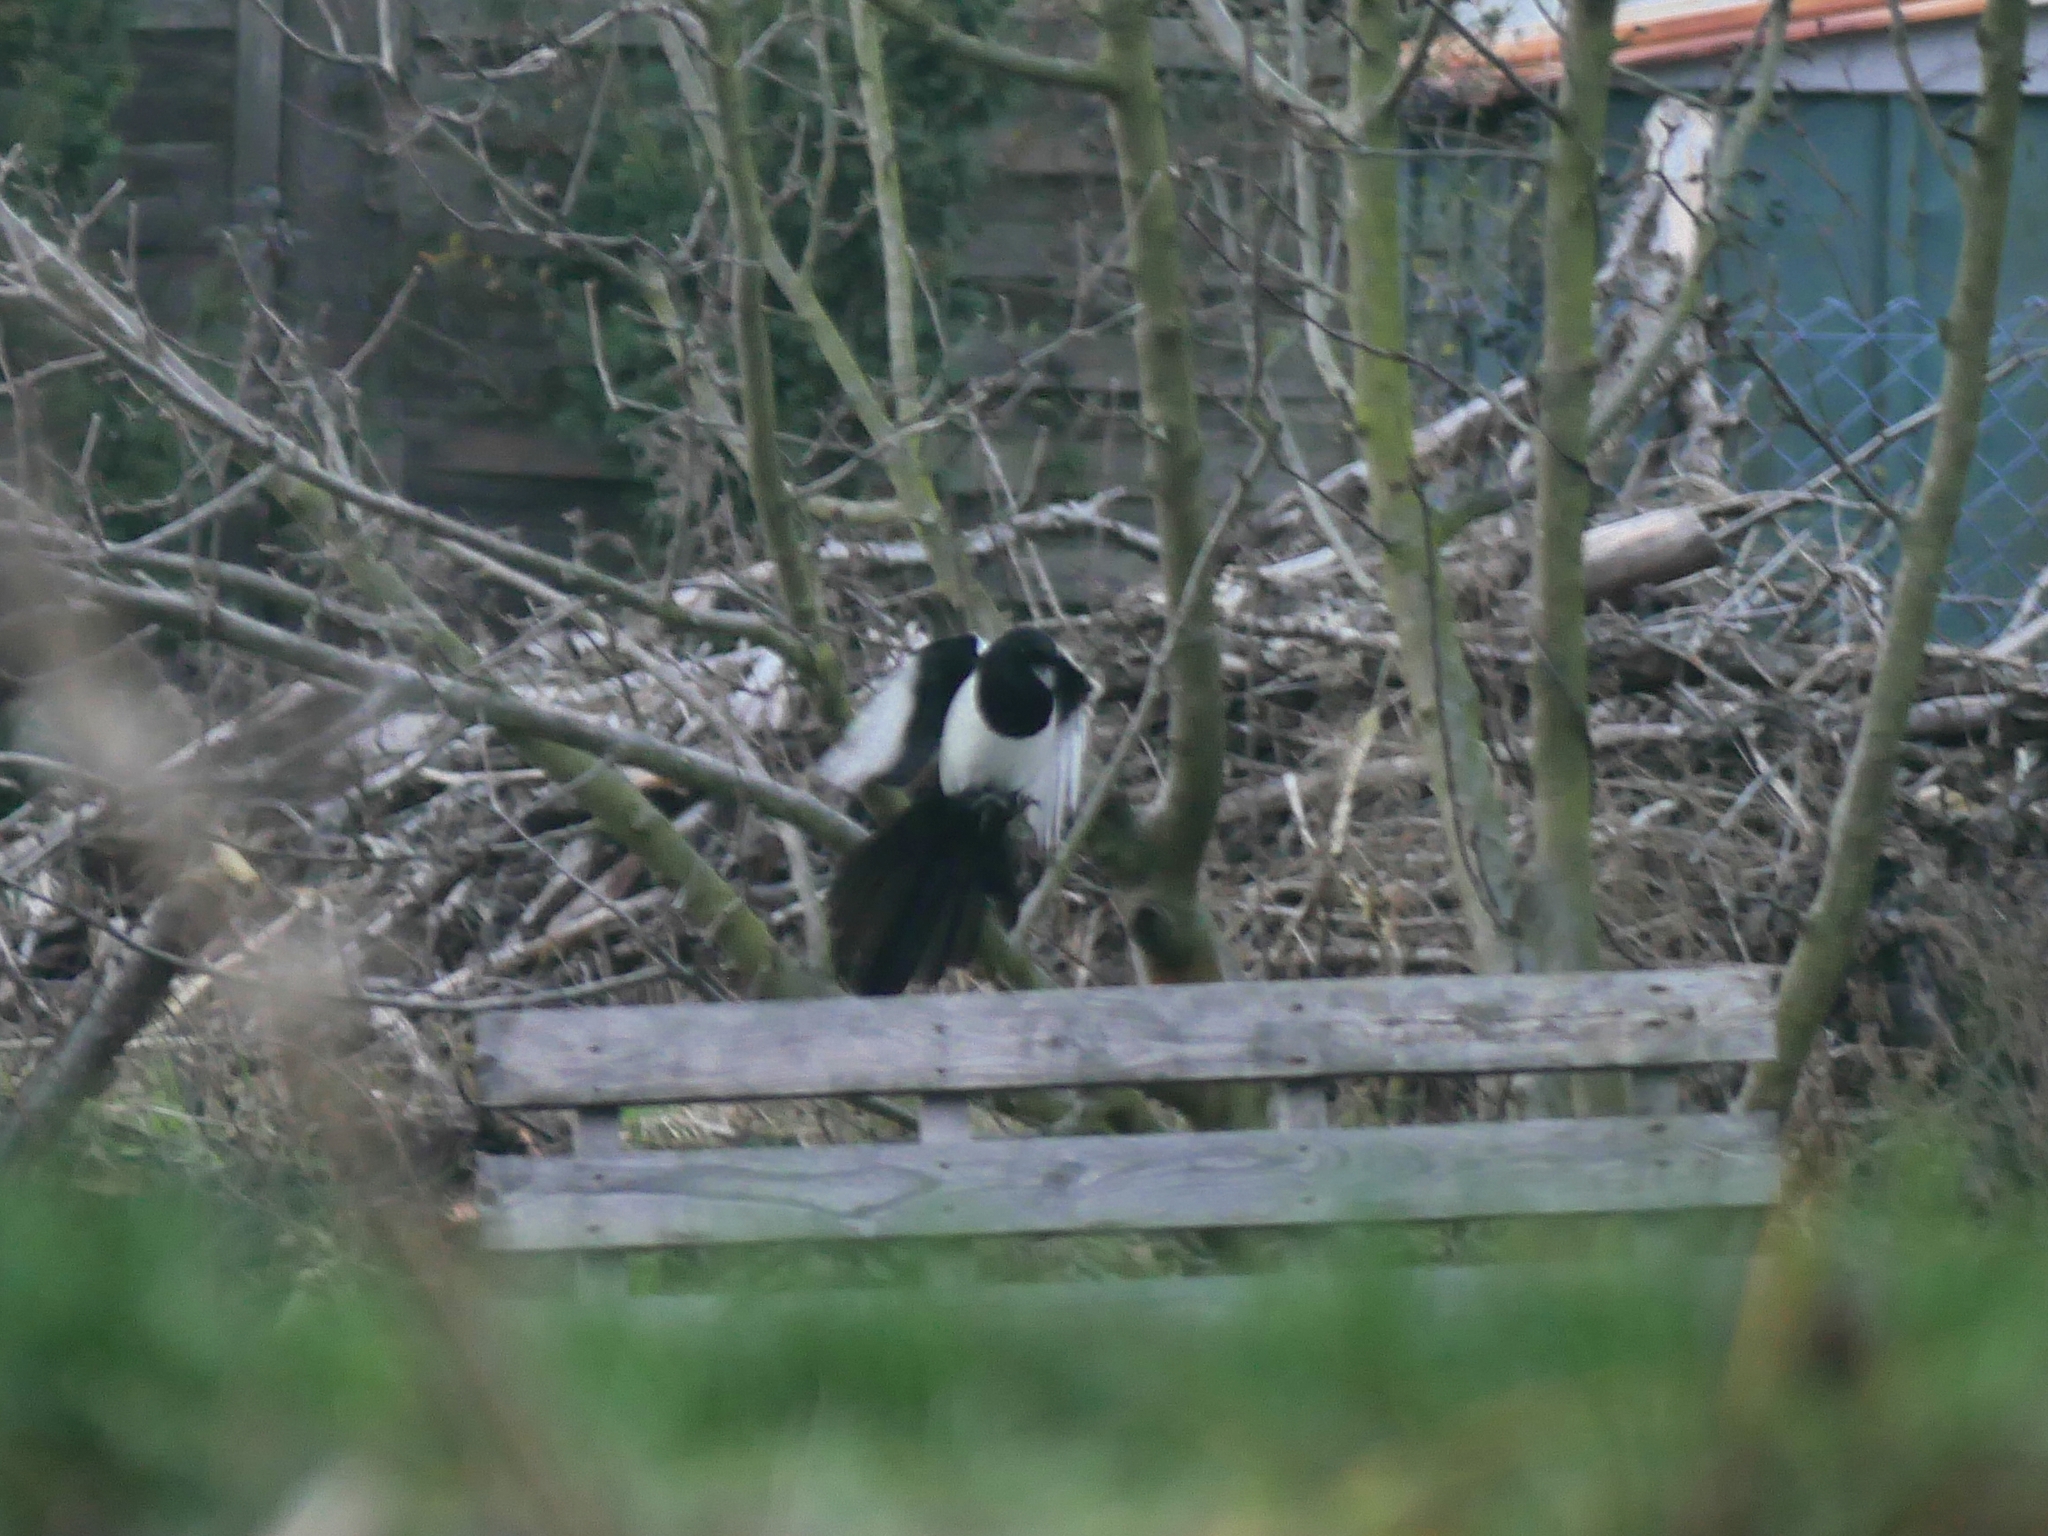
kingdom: Animalia
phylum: Chordata
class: Aves
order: Passeriformes
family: Corvidae
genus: Pica
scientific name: Pica pica
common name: Eurasian magpie
